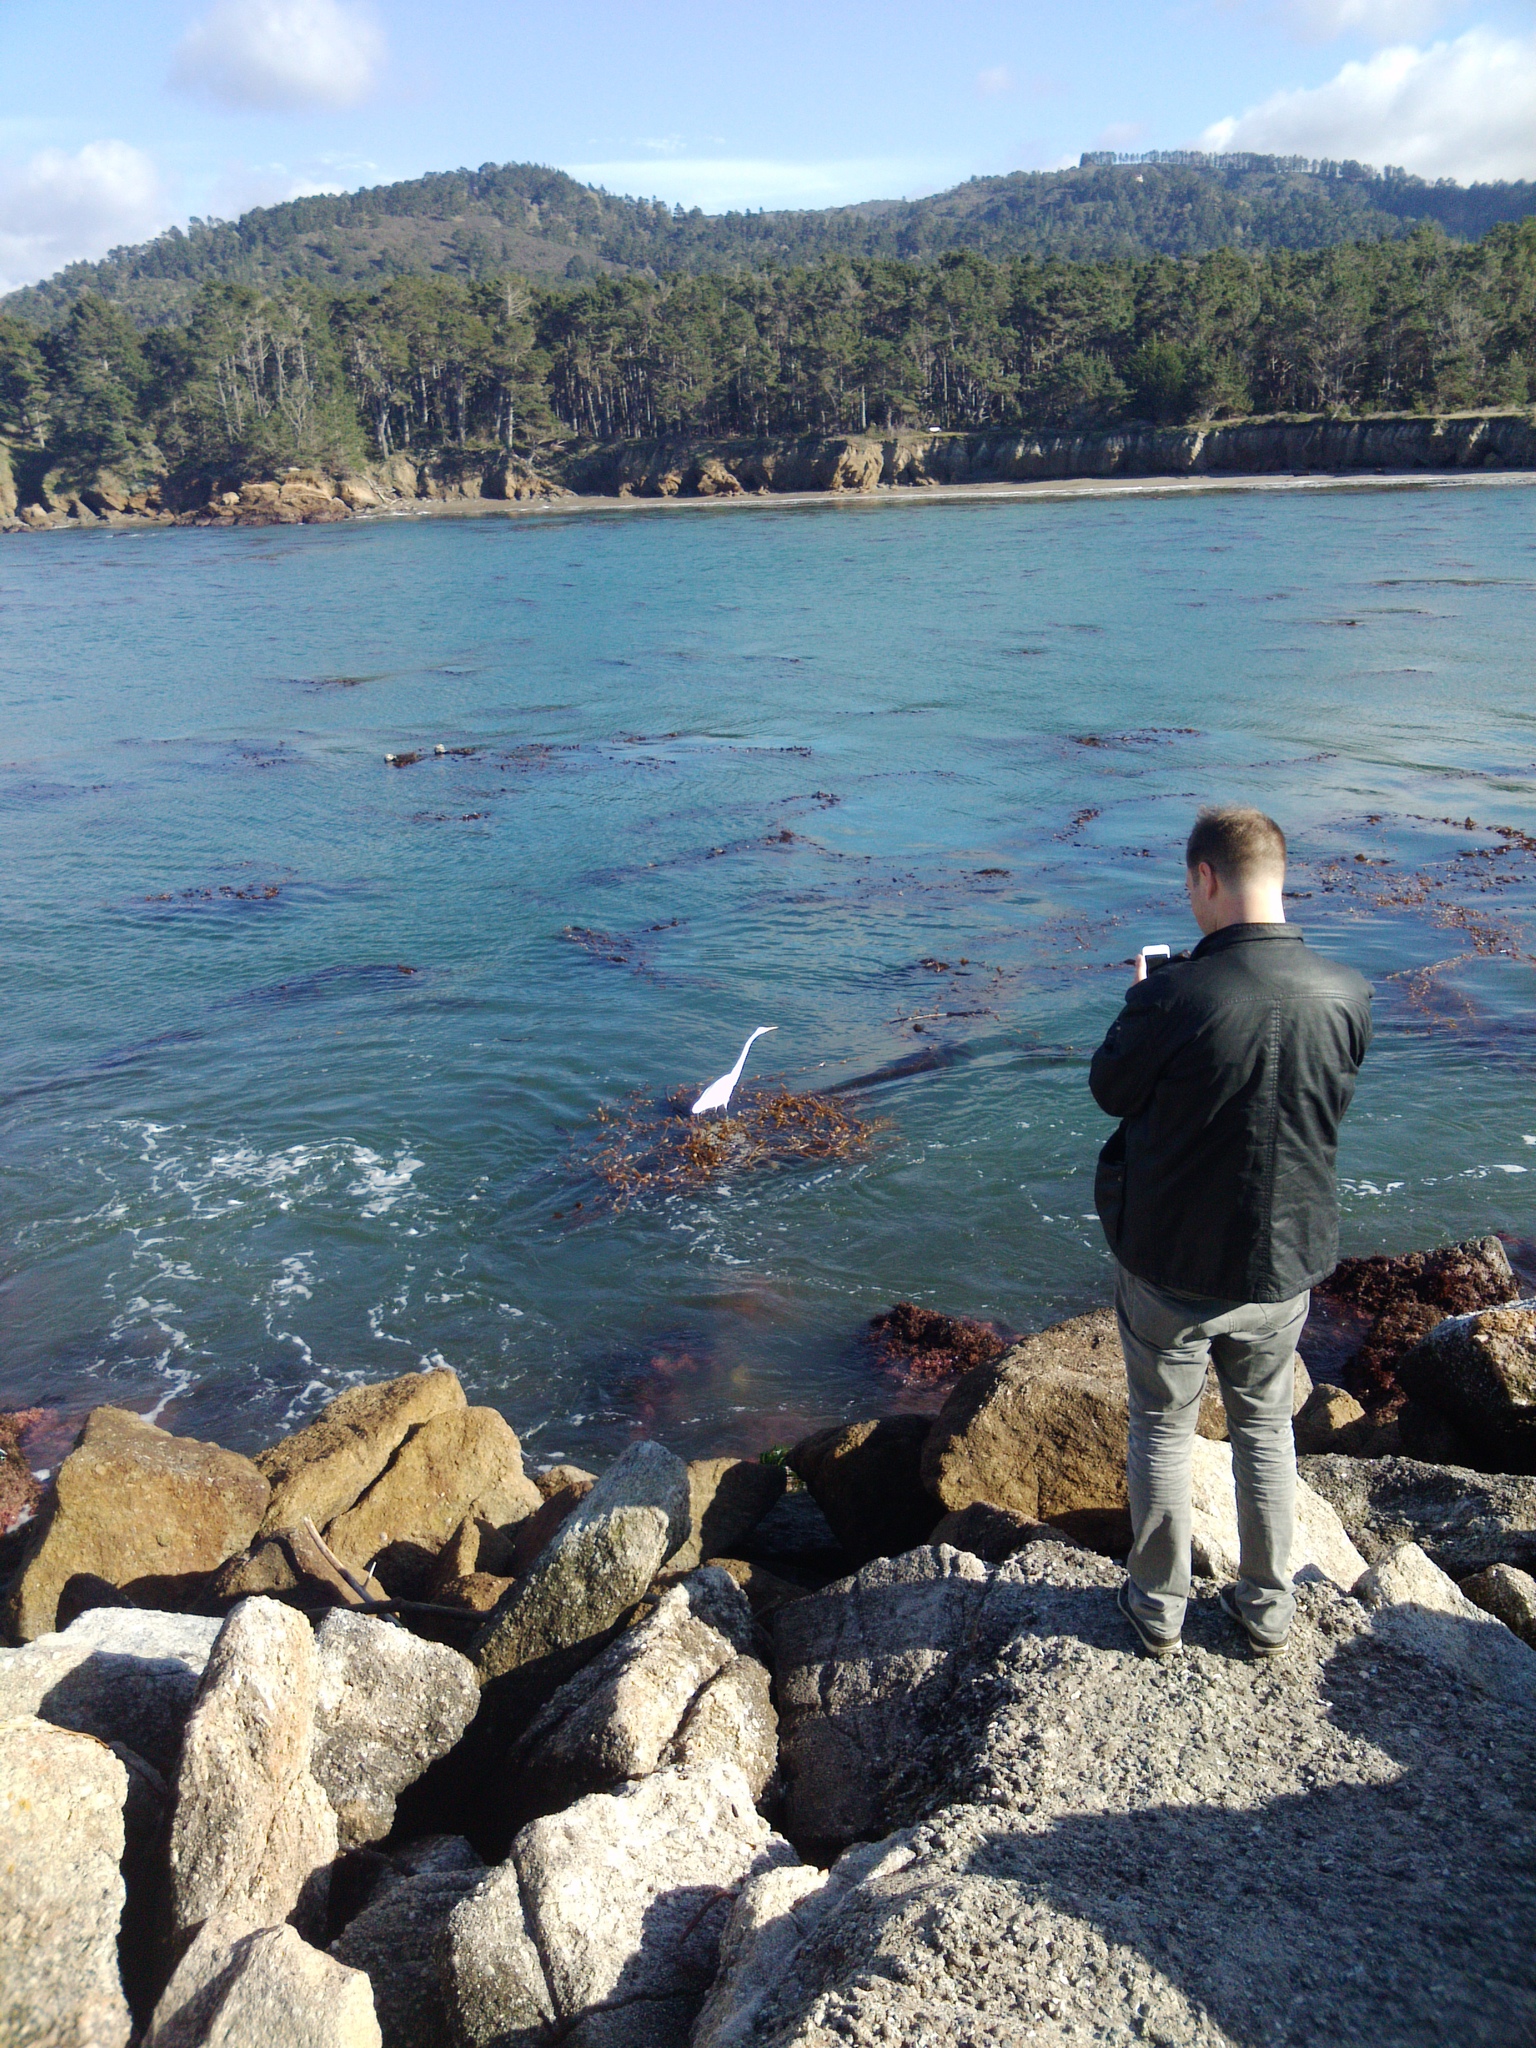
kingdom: Animalia
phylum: Chordata
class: Aves
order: Pelecaniformes
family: Ardeidae
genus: Ardea
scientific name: Ardea alba
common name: Great egret
